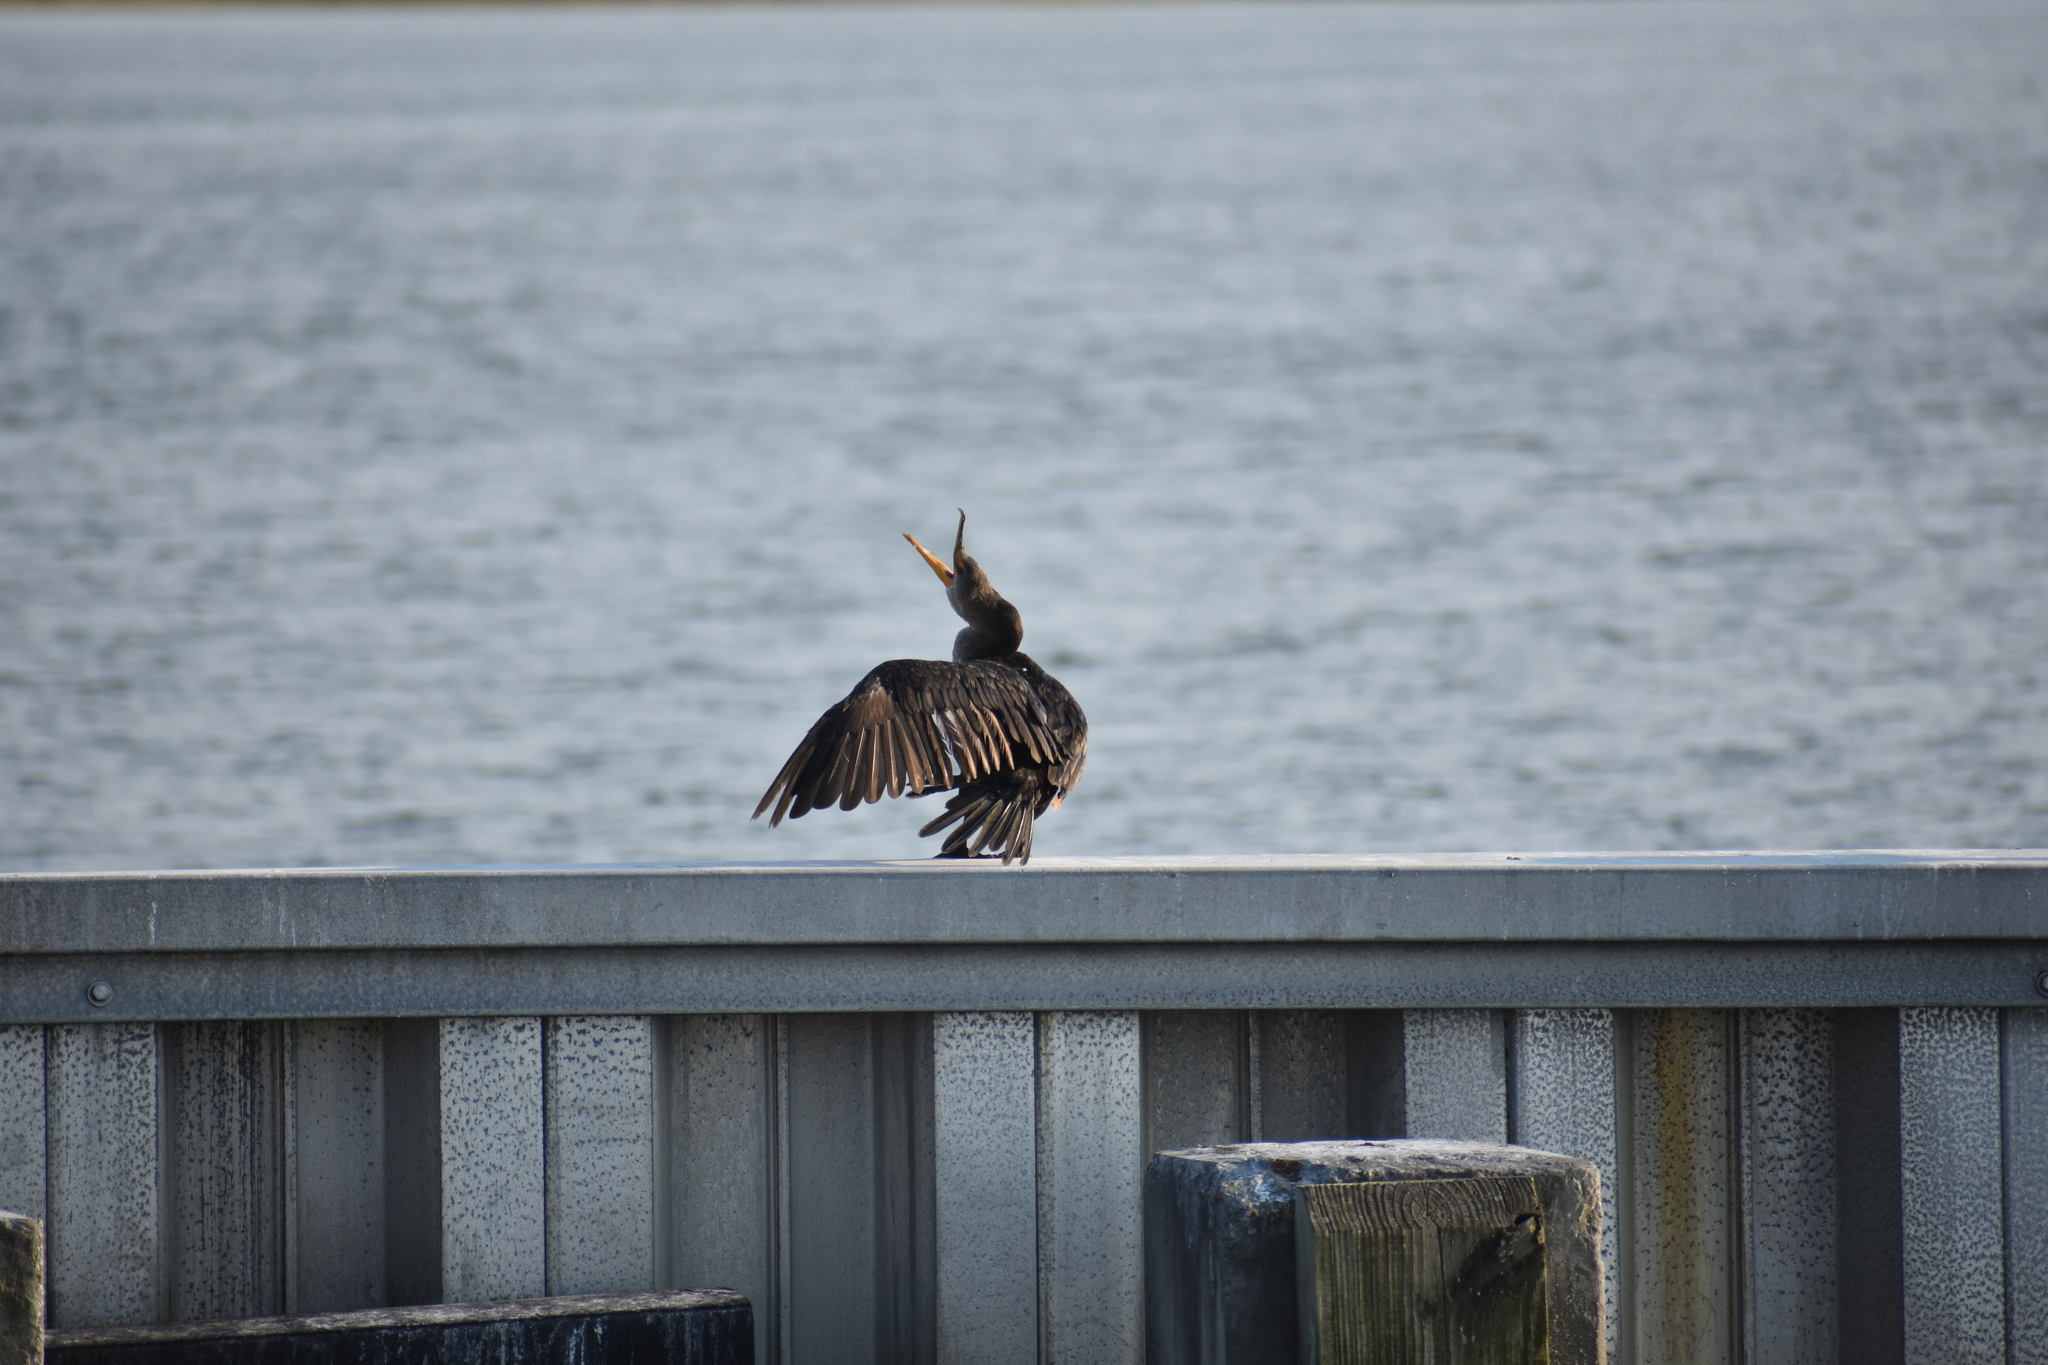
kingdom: Animalia
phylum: Chordata
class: Aves
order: Suliformes
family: Phalacrocoracidae
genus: Phalacrocorax
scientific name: Phalacrocorax auritus
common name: Double-crested cormorant
